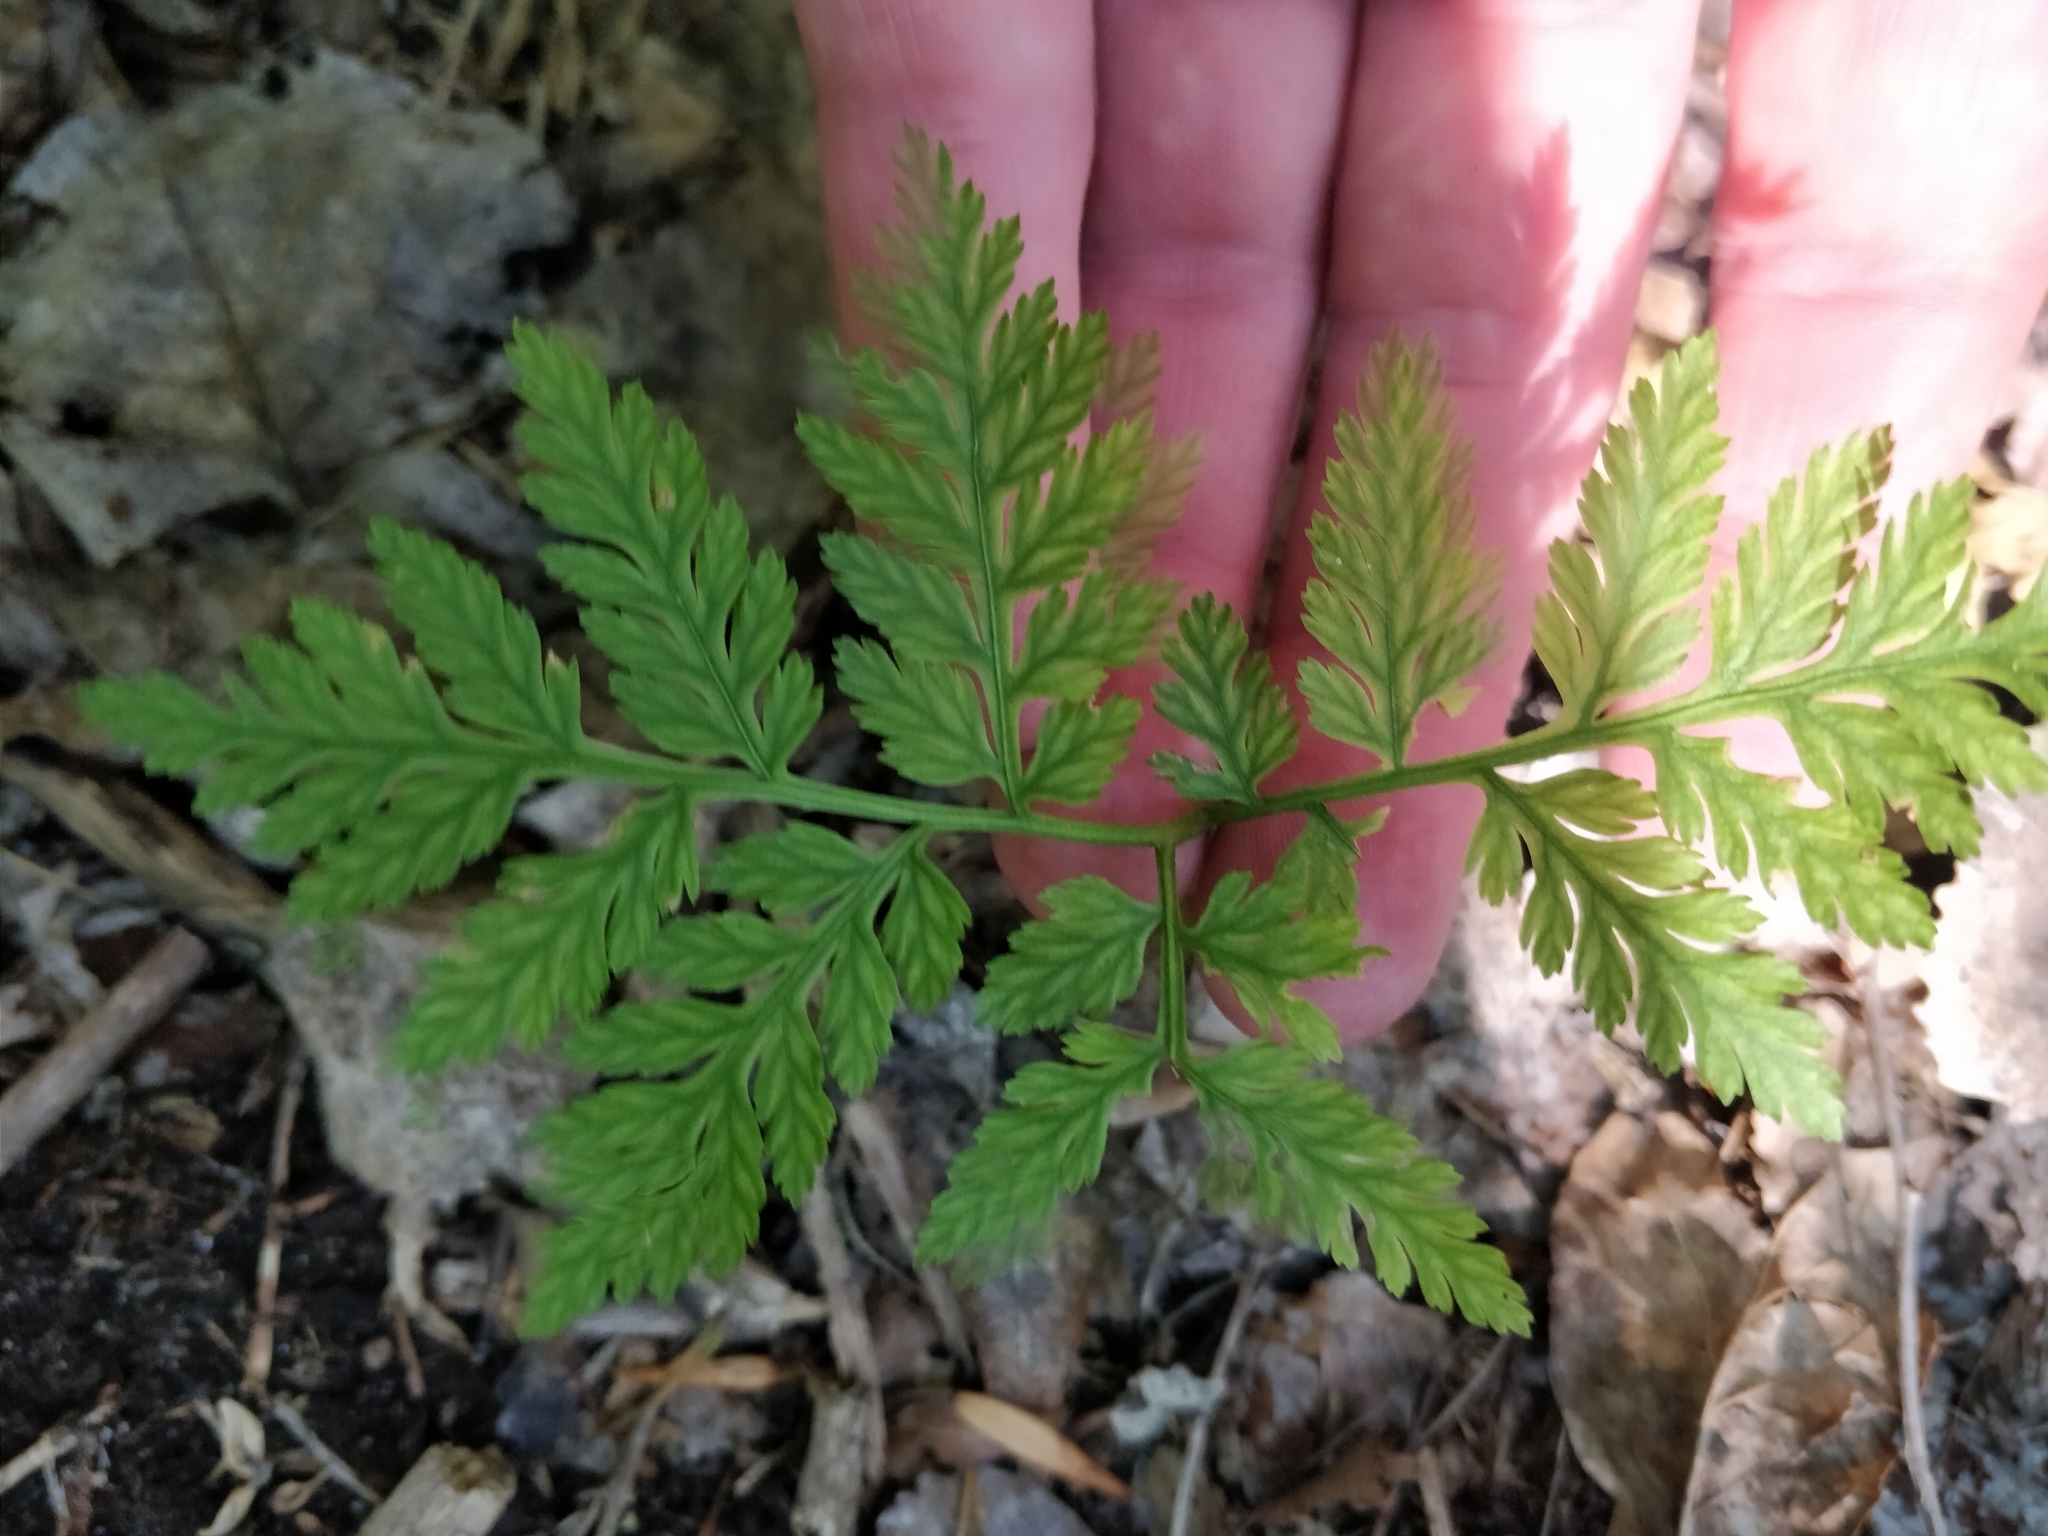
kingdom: Plantae
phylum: Tracheophyta
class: Polypodiopsida
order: Ophioglossales
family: Ophioglossaceae
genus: Botrypus
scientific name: Botrypus virginianus
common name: Common grapefern
